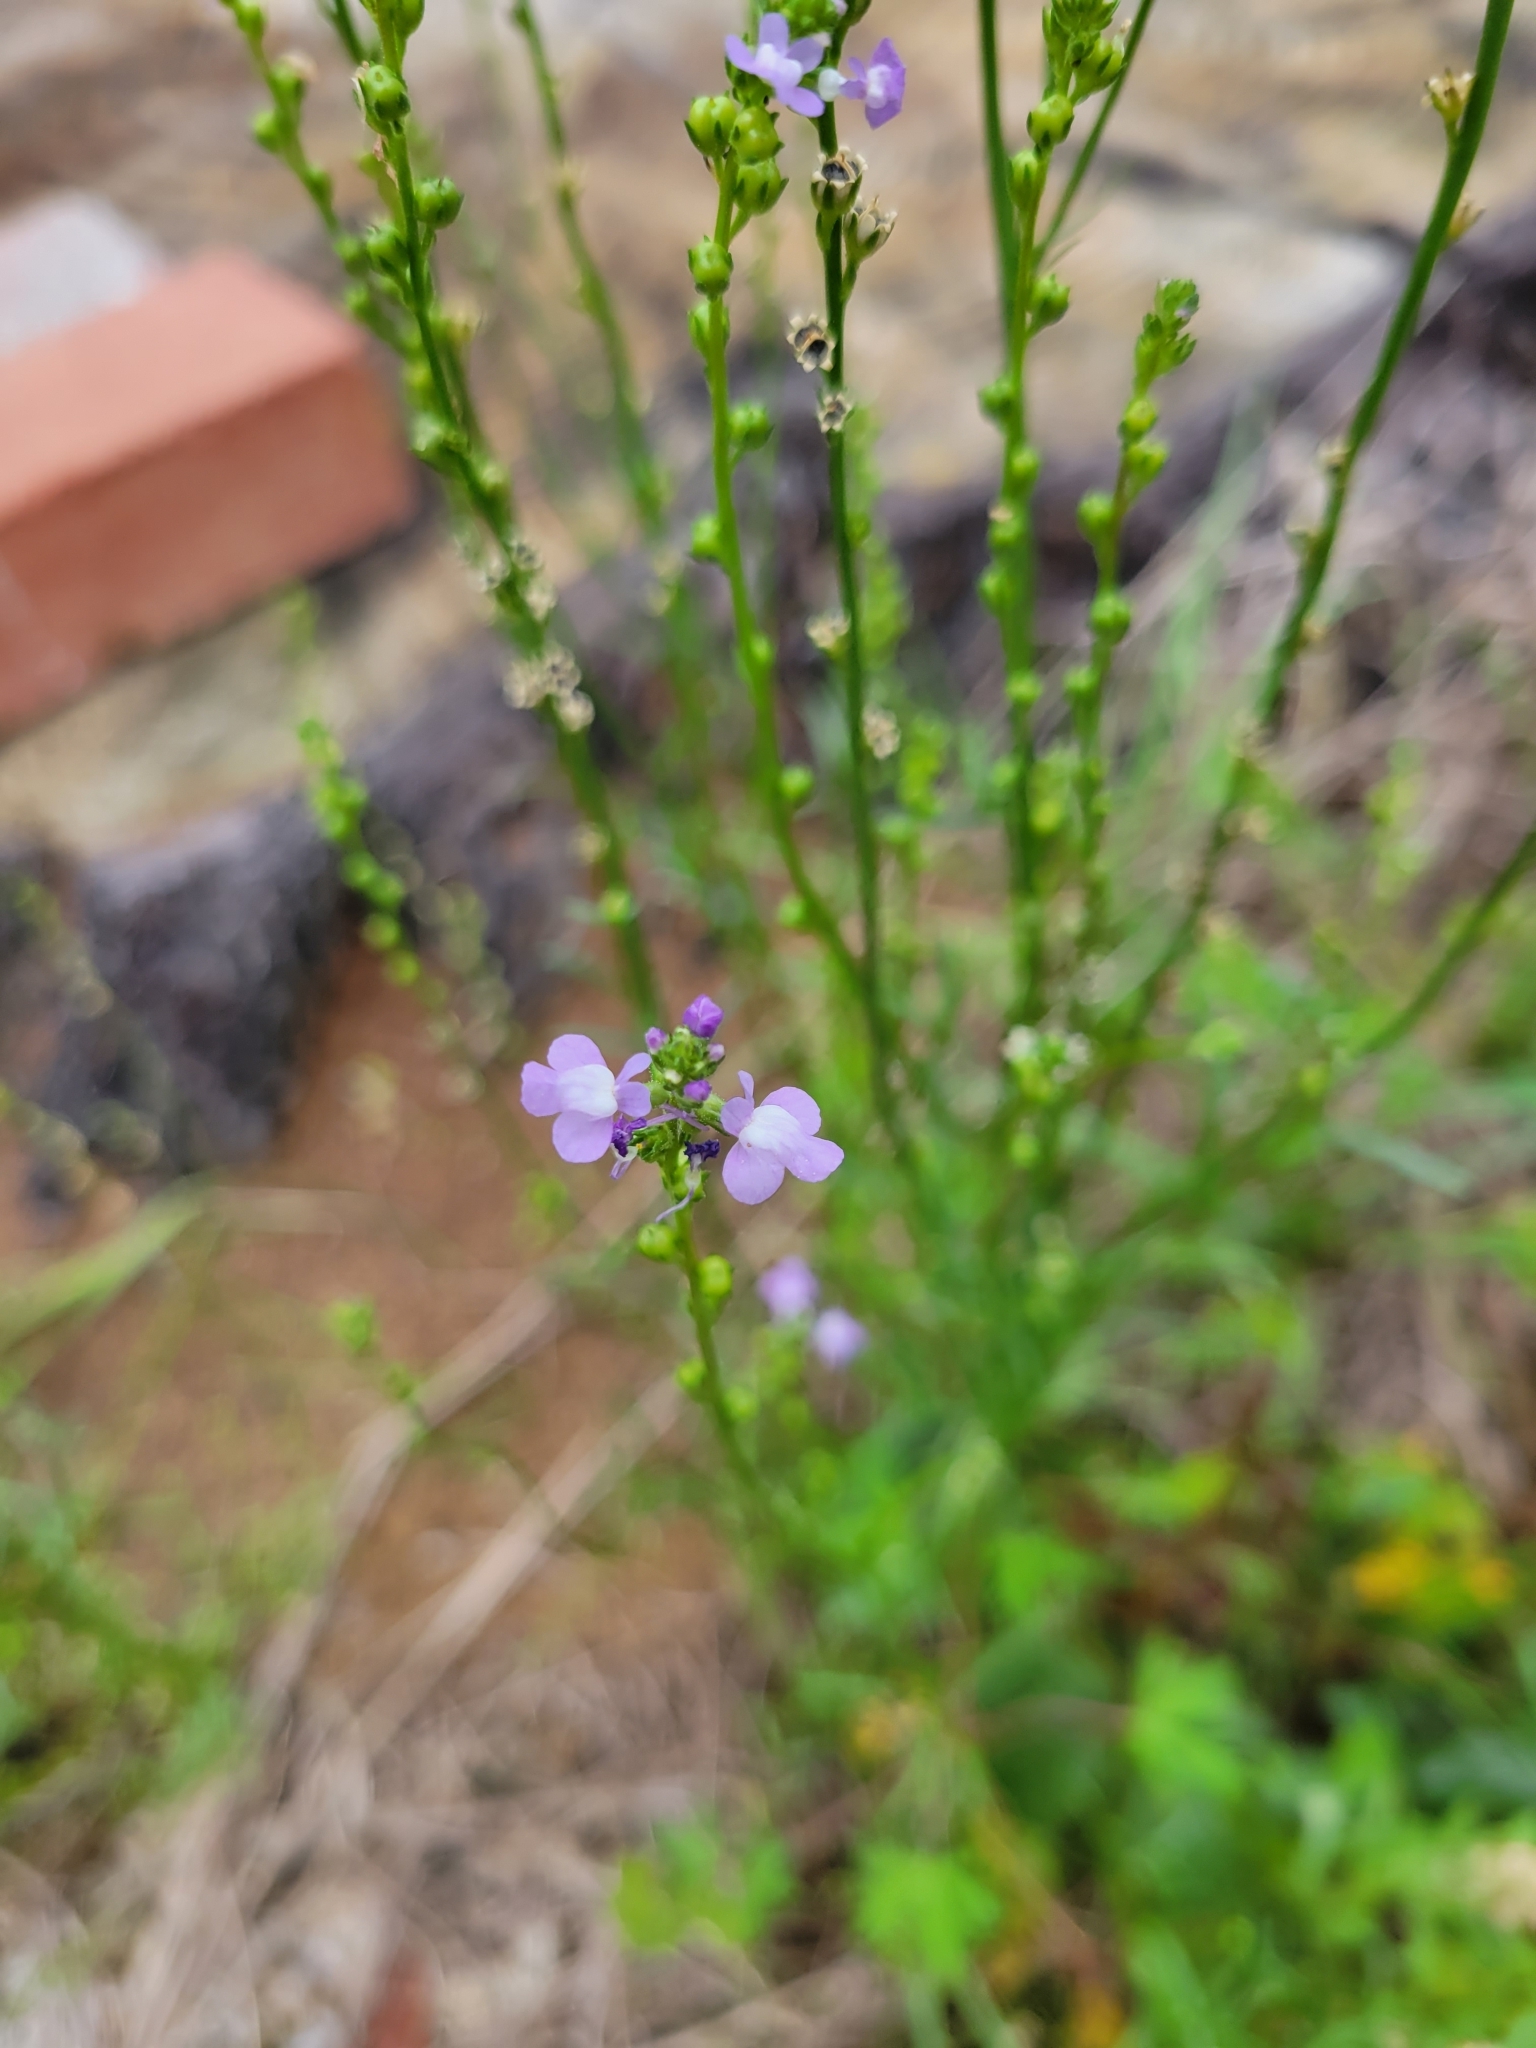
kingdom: Plantae
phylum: Tracheophyta
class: Magnoliopsida
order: Lamiales
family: Plantaginaceae
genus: Nuttallanthus
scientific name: Nuttallanthus canadensis
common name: Blue toadflax
